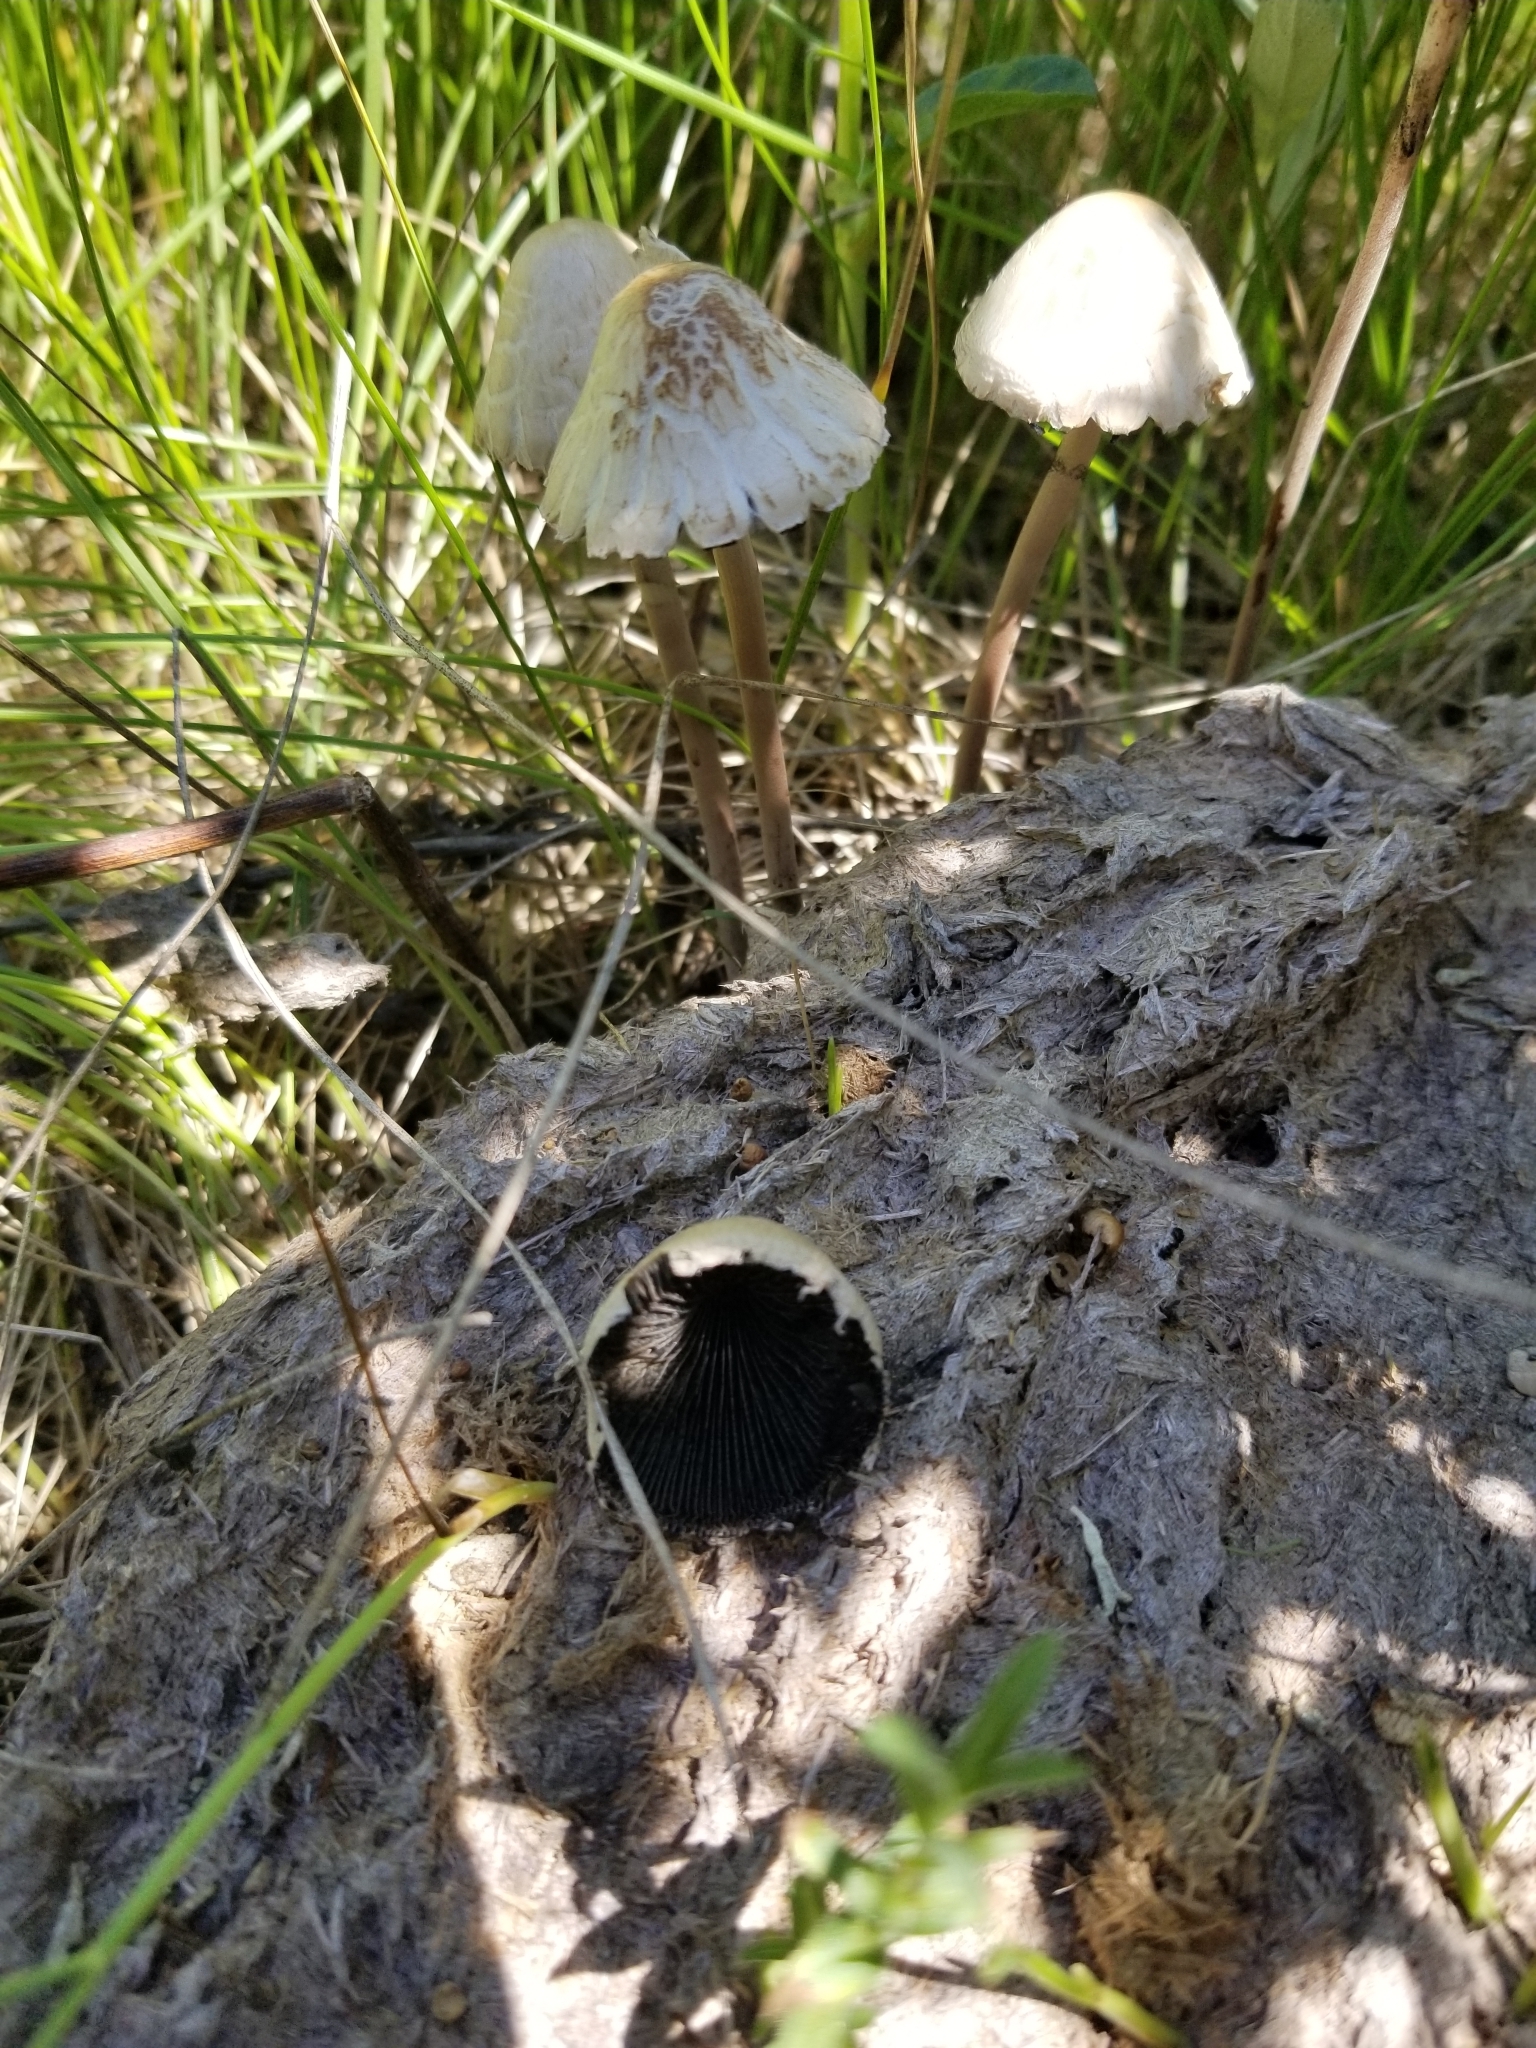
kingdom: Fungi
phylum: Basidiomycota
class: Agaricomycetes
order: Agaricales
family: Bolbitiaceae
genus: Panaeolus
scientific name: Panaeolus papilionaceus
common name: Petticoat mottlegill
